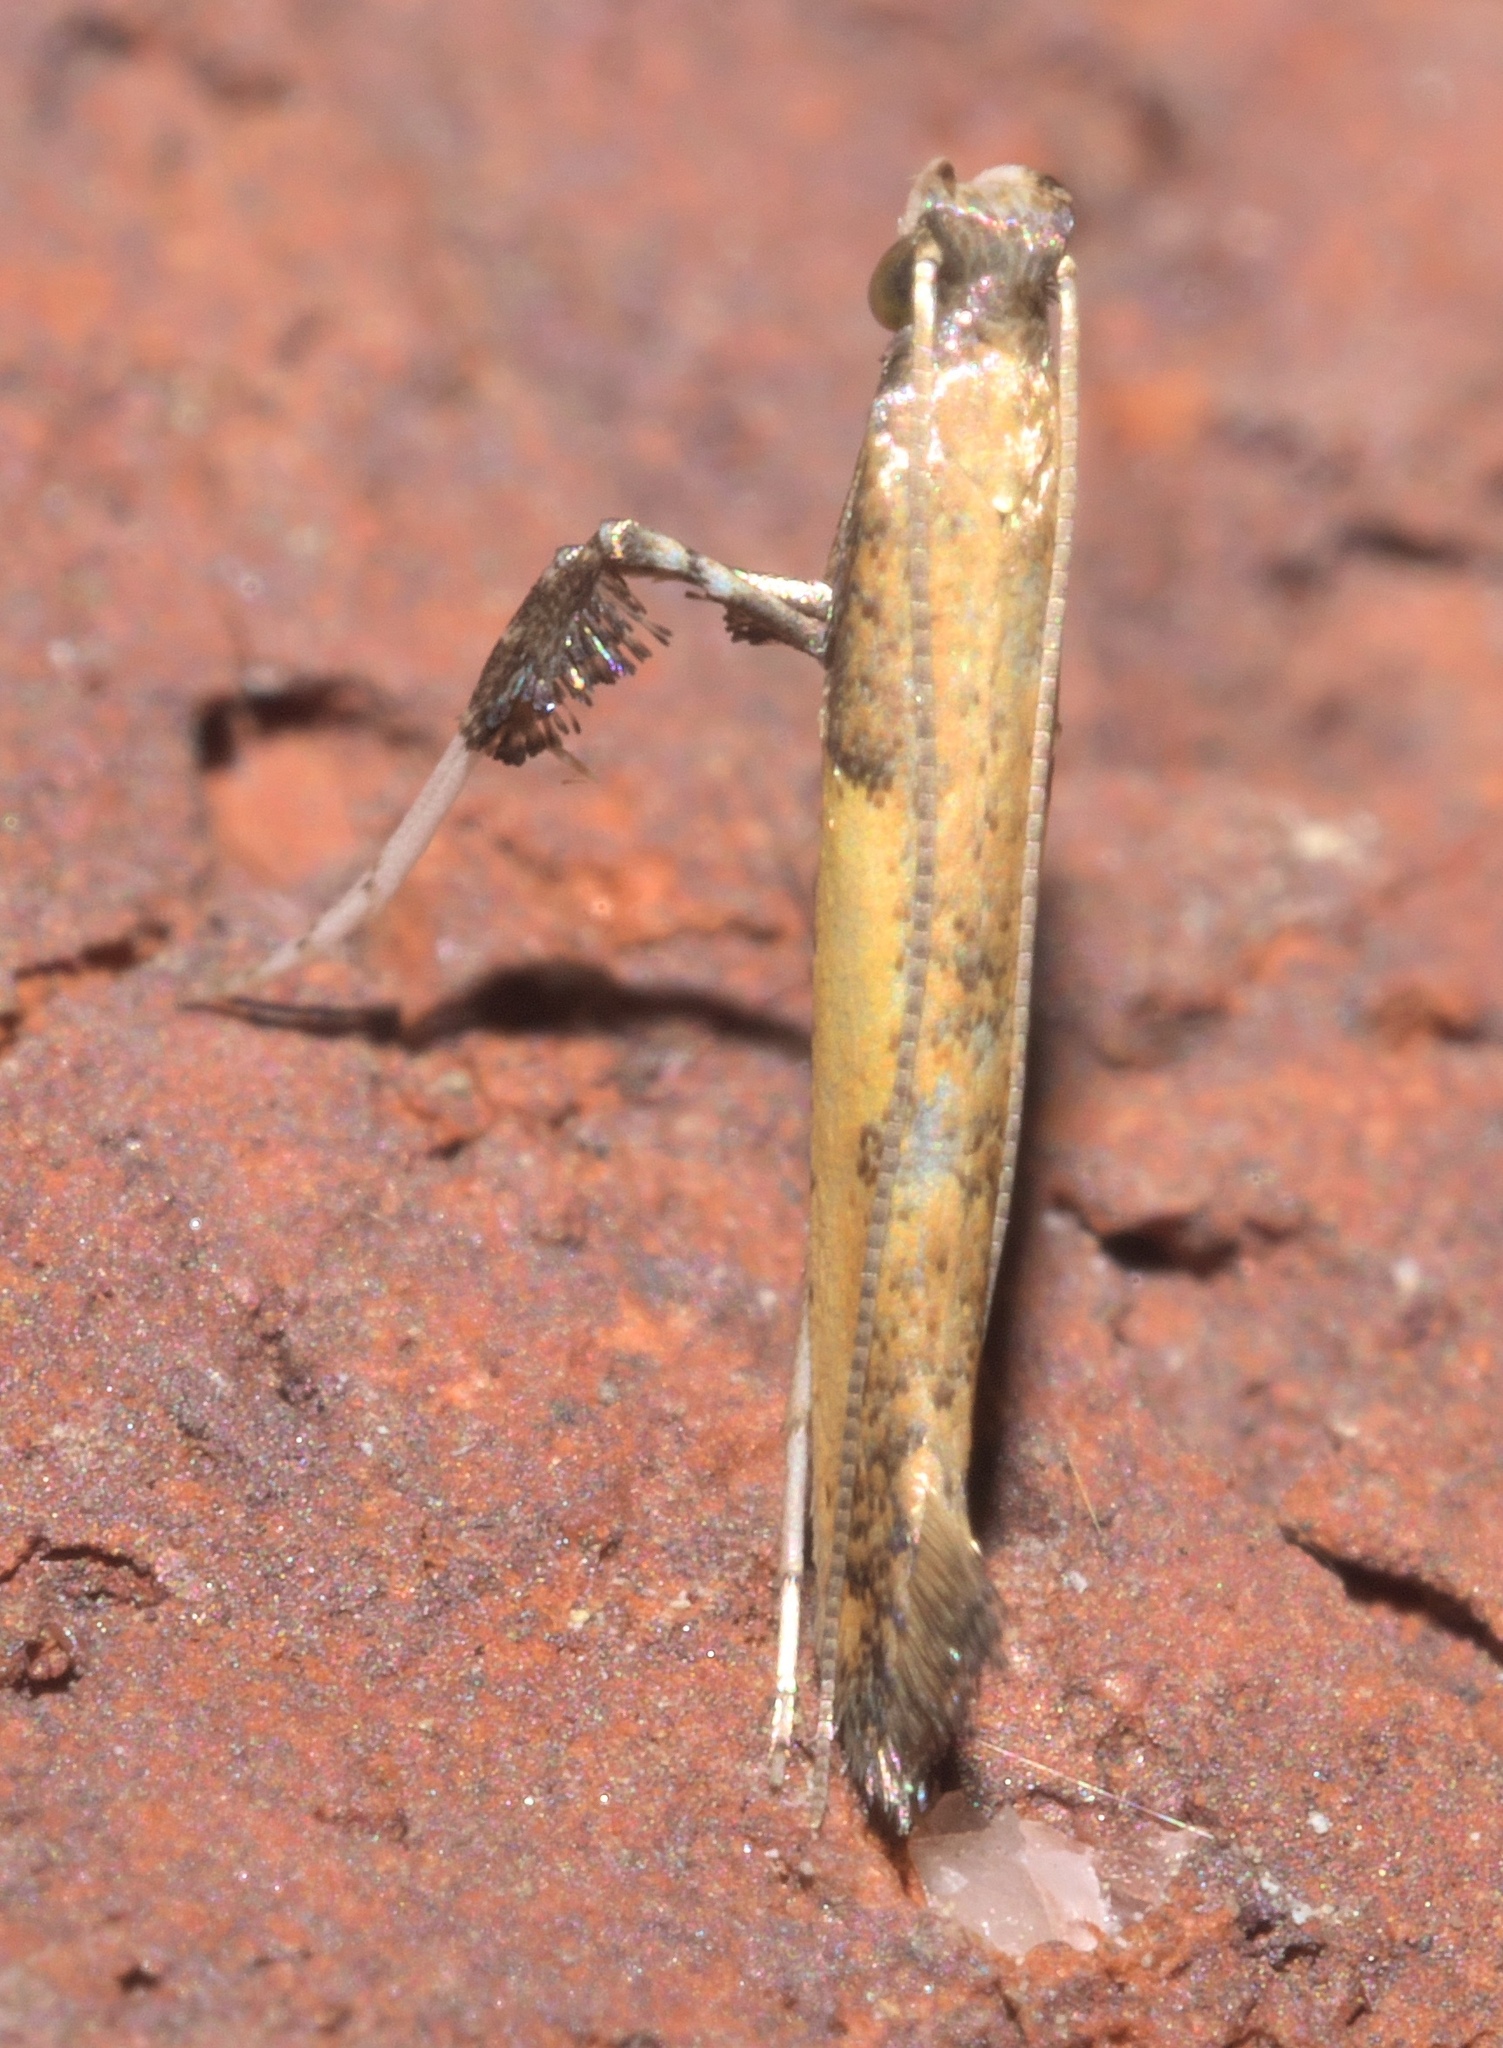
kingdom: Animalia
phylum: Arthropoda
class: Insecta
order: Lepidoptera
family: Gracillariidae
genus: Caloptilia
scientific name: Caloptilia azaleella
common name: Azalea leafminer
